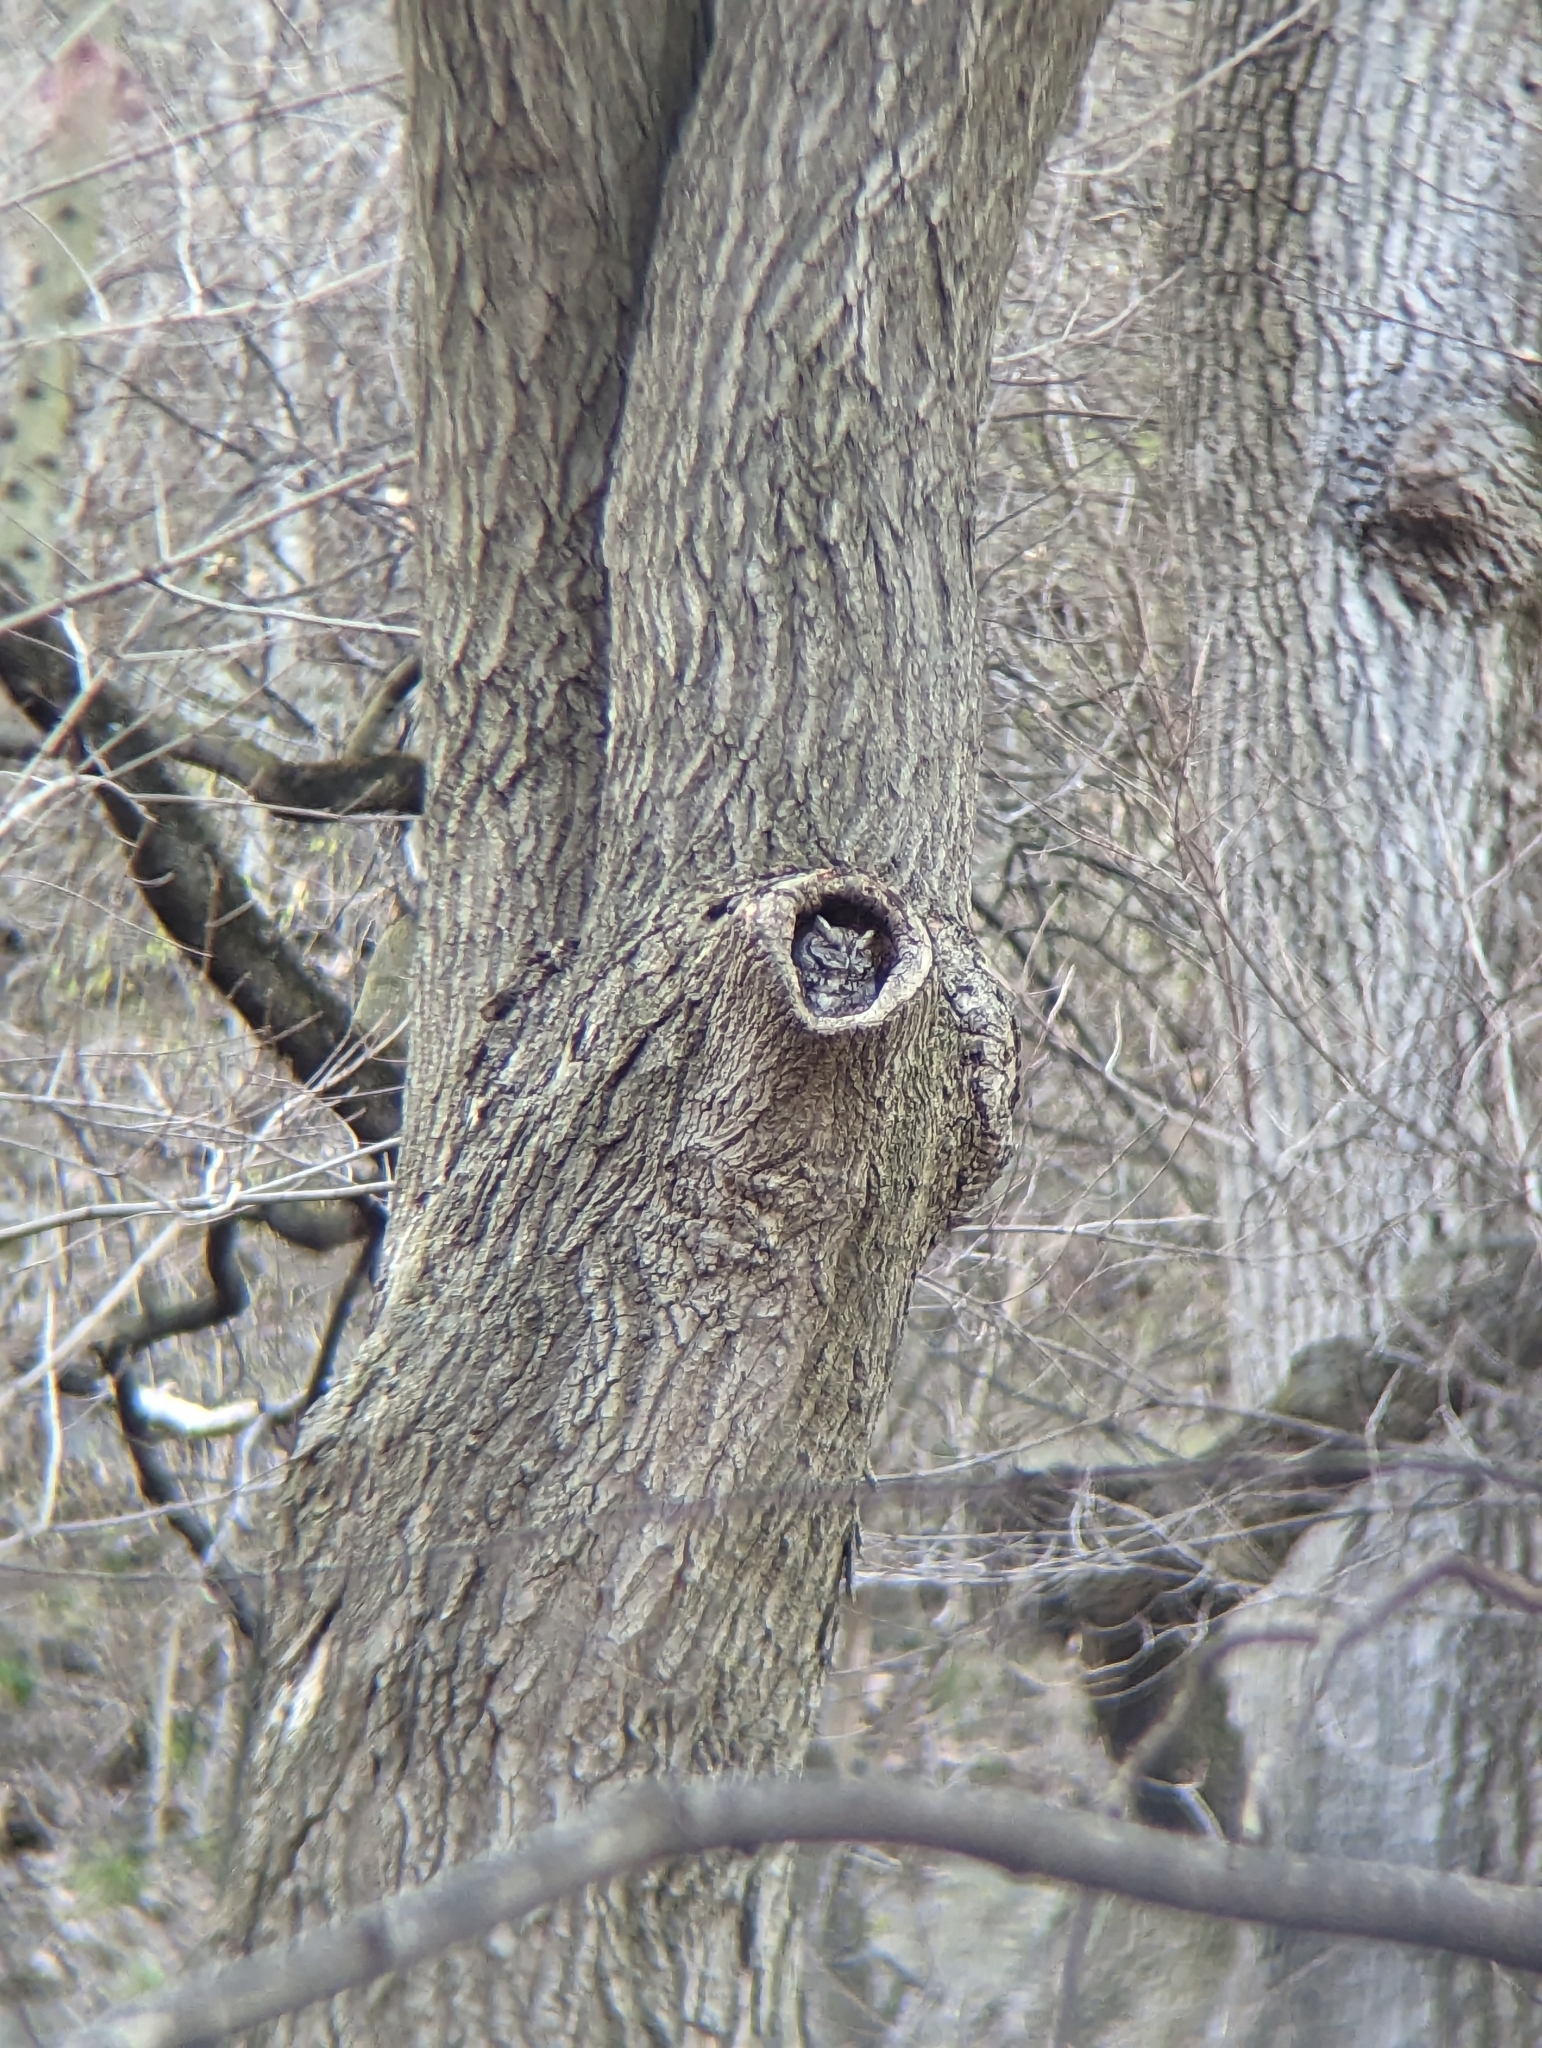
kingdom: Animalia
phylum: Chordata
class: Aves
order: Strigiformes
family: Strigidae
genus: Megascops
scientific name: Megascops asio
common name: Eastern screech-owl
